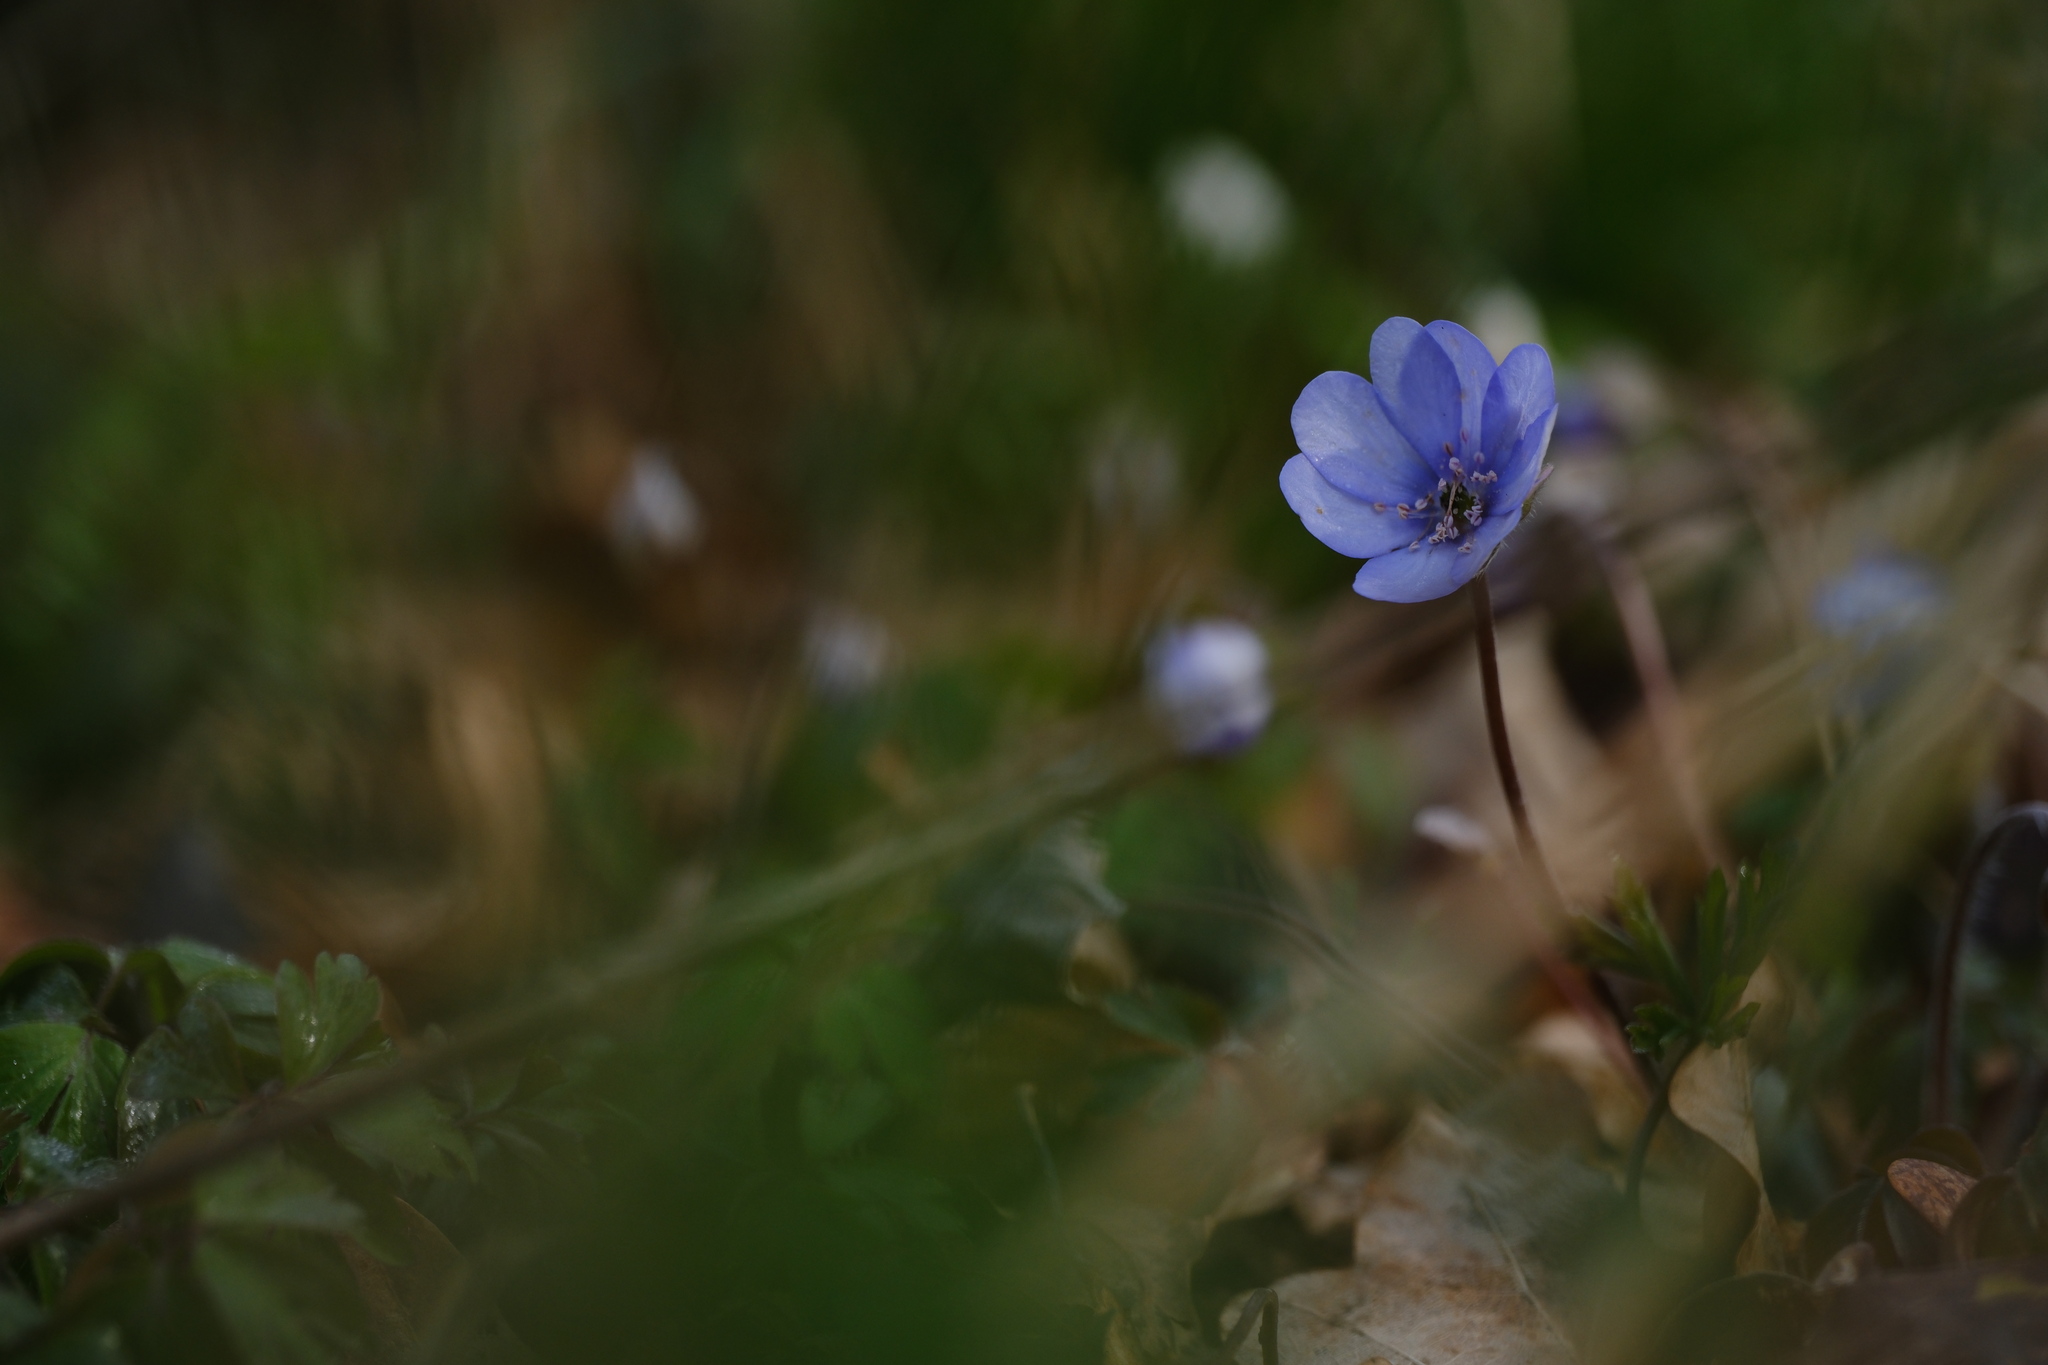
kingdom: Plantae
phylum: Tracheophyta
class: Magnoliopsida
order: Ranunculales
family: Ranunculaceae
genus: Hepatica
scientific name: Hepatica nobilis
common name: Liverleaf
